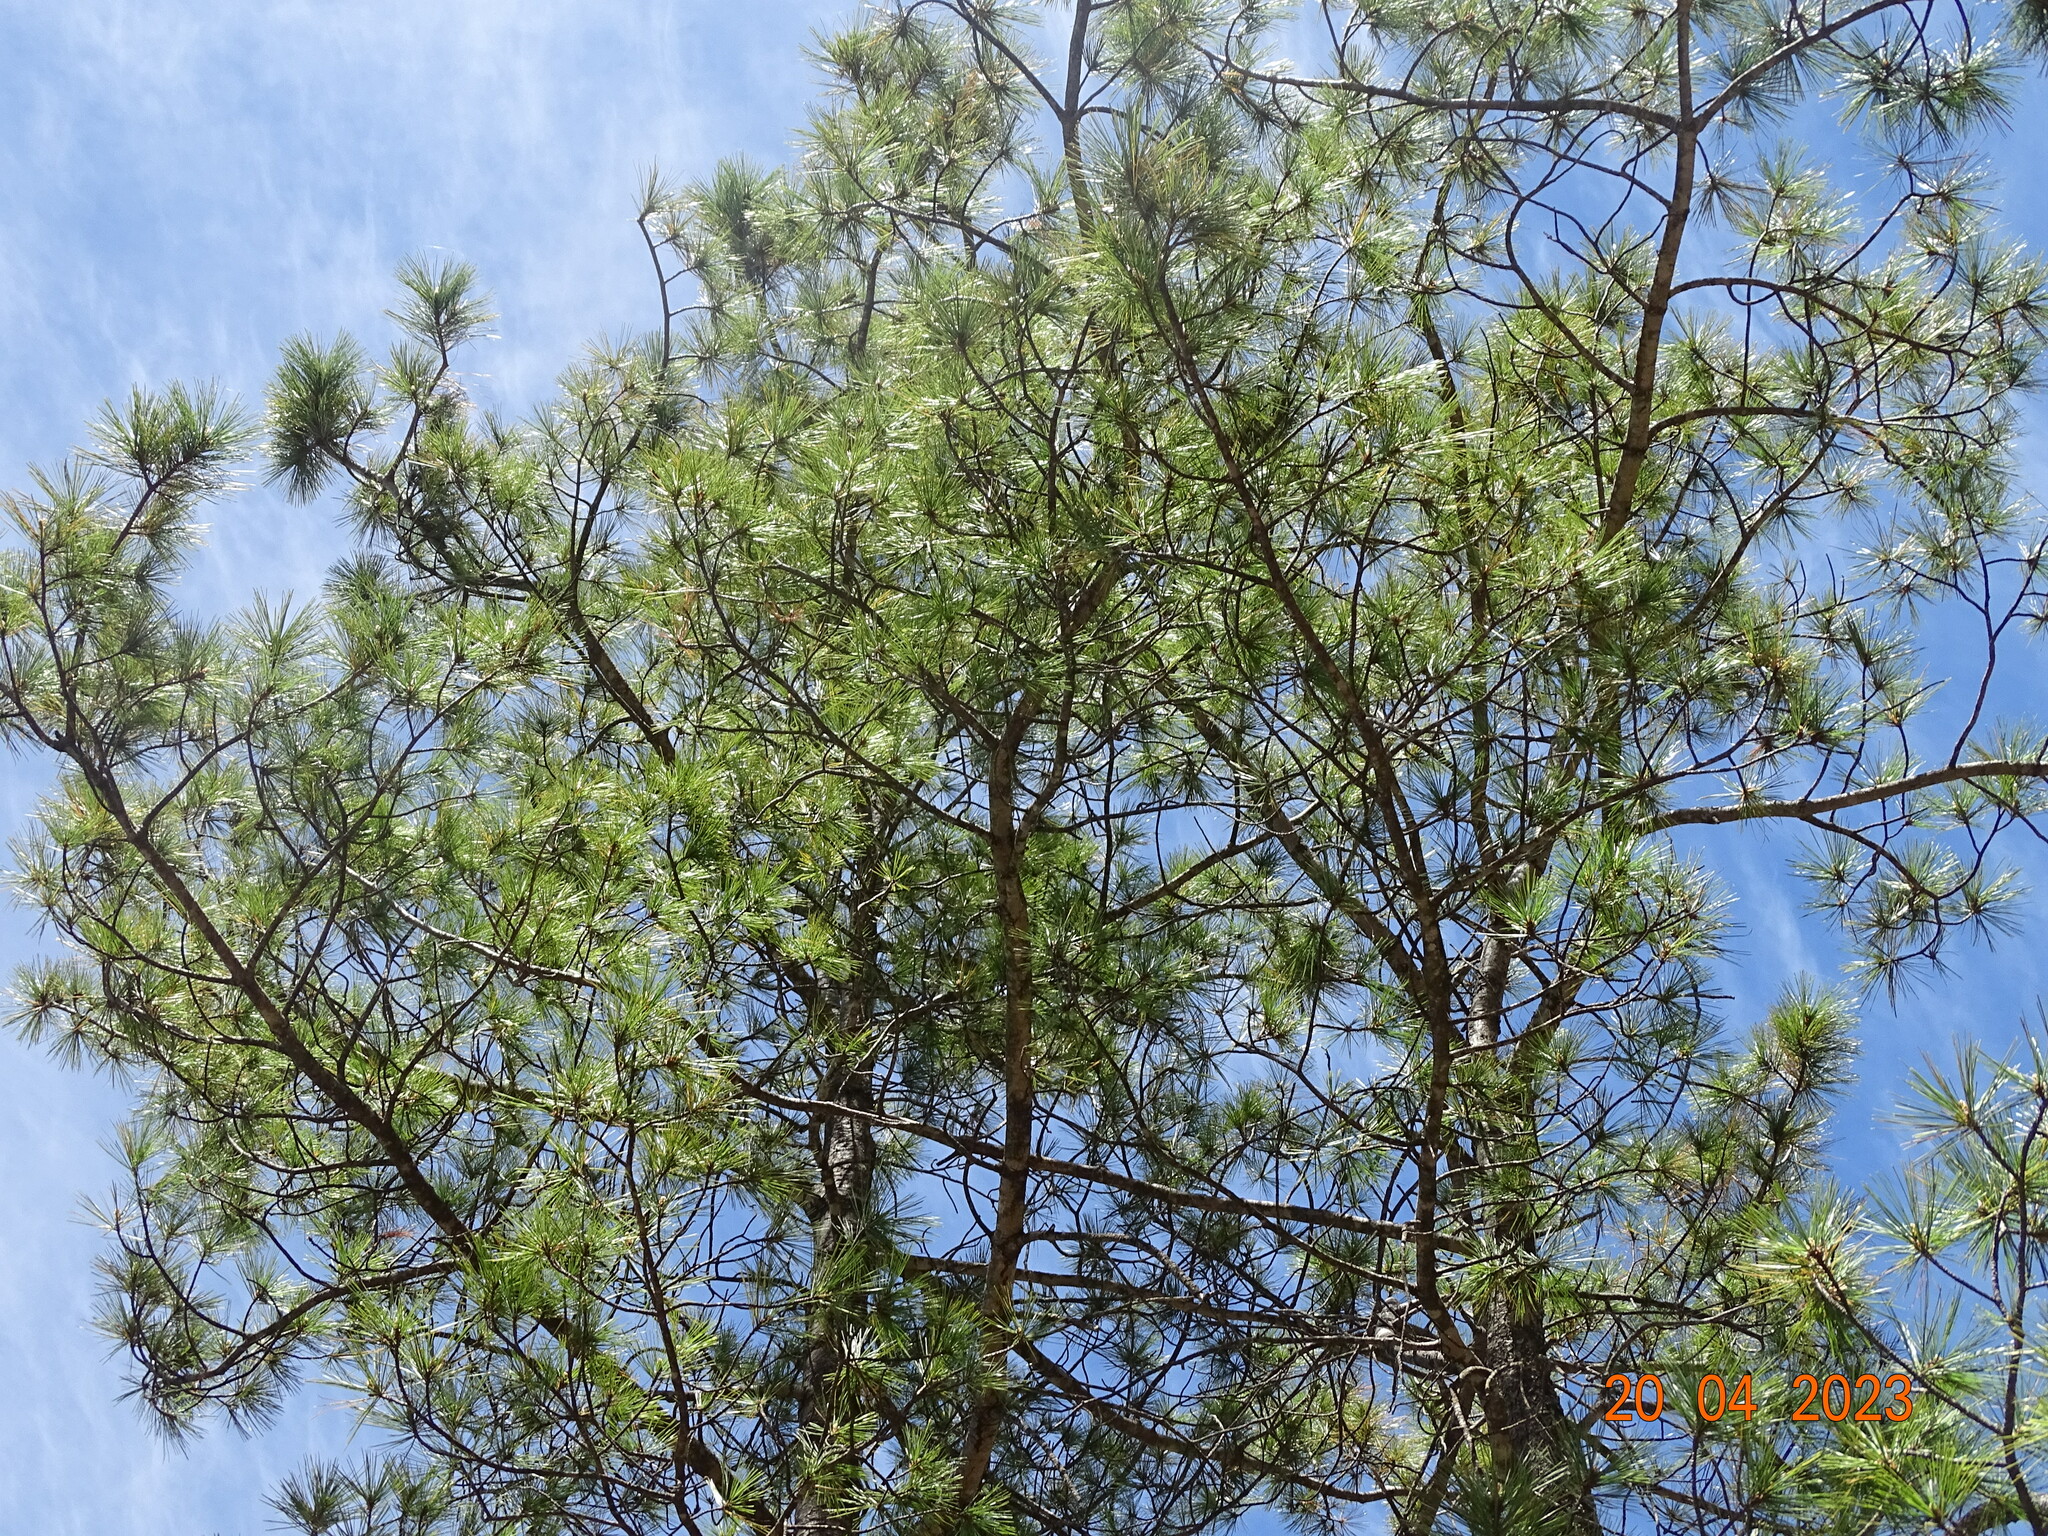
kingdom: Plantae
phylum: Tracheophyta
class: Pinopsida
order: Pinales
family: Pinaceae
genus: Pinus
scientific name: Pinus arizonica
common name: Arizona pine
